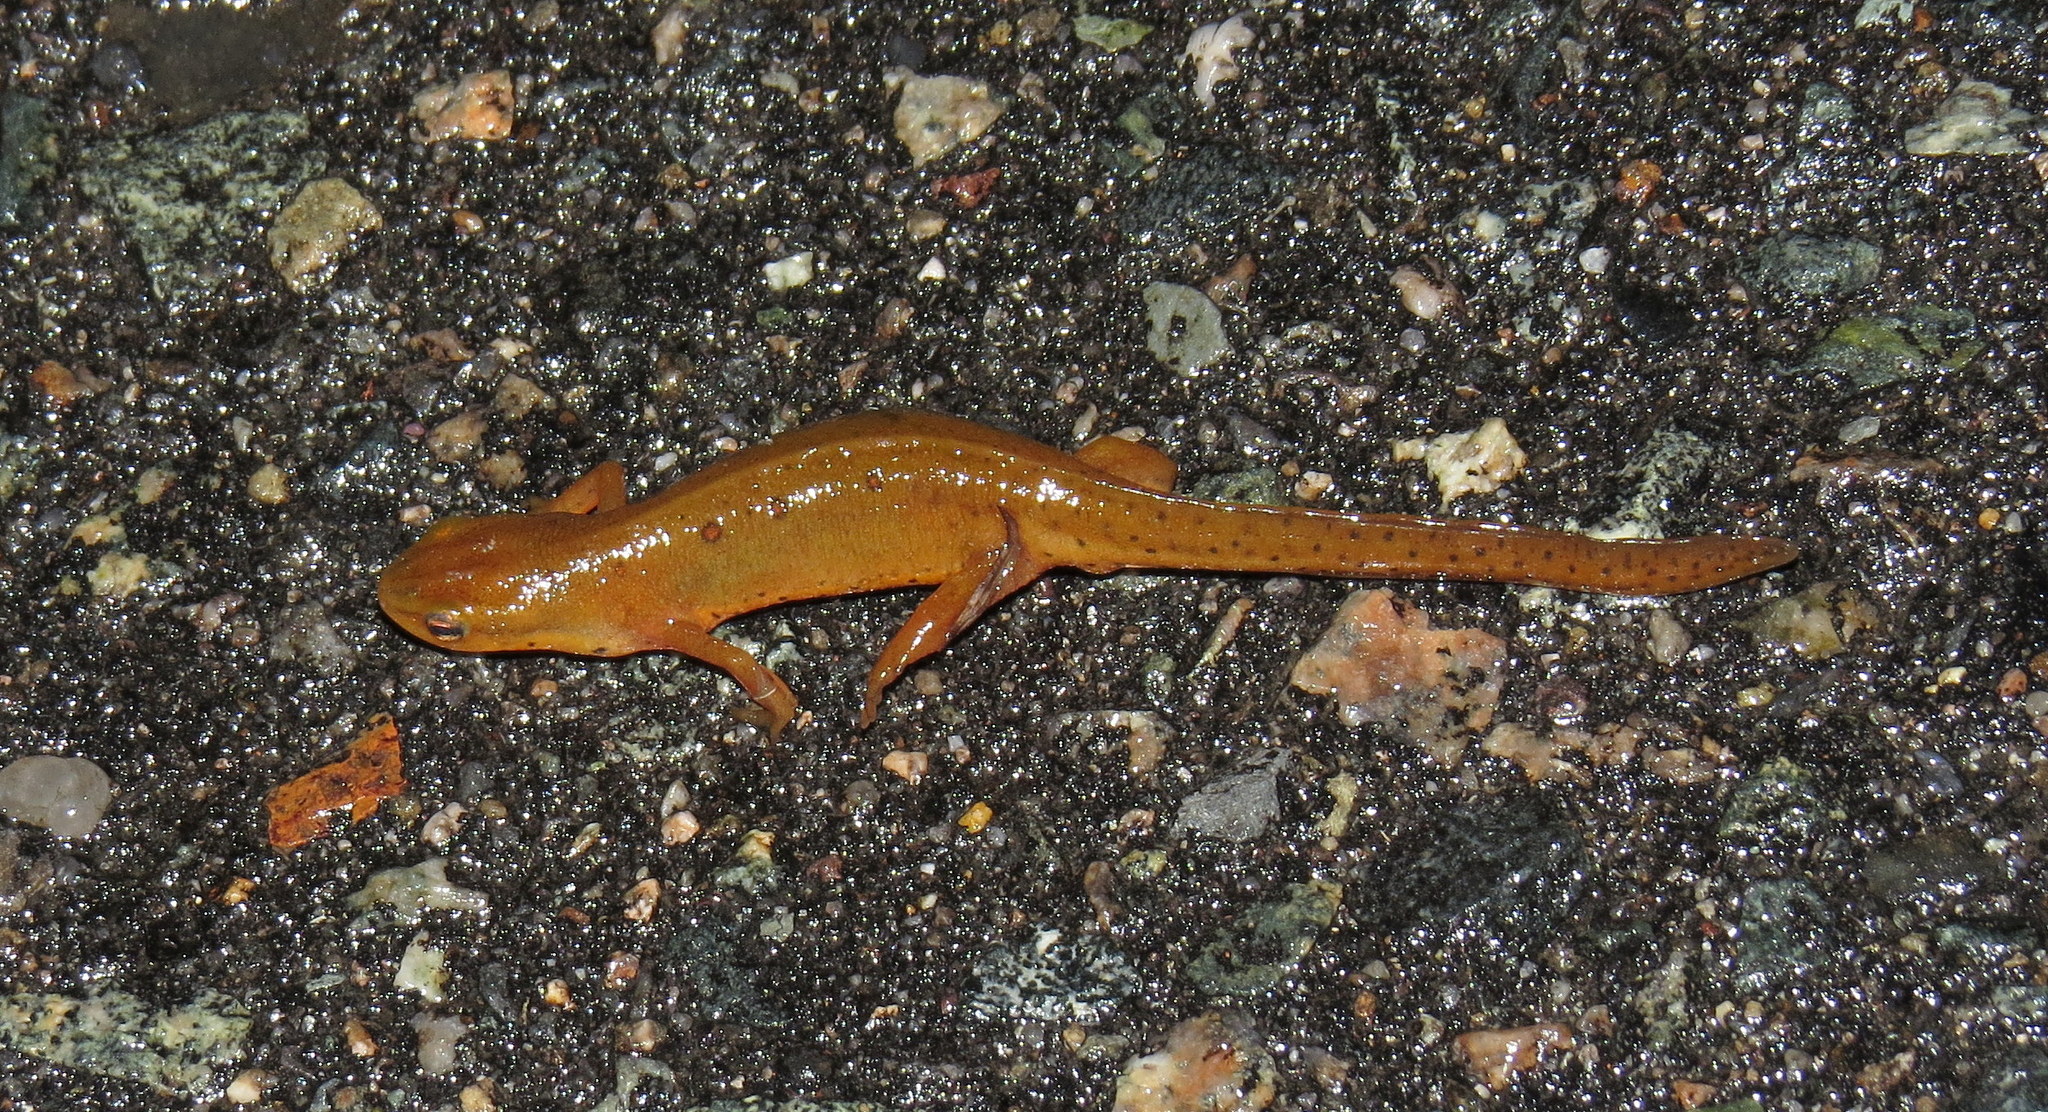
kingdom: Animalia
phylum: Chordata
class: Amphibia
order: Caudata
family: Salamandridae
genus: Notophthalmus
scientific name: Notophthalmus viridescens
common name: Eastern newt
